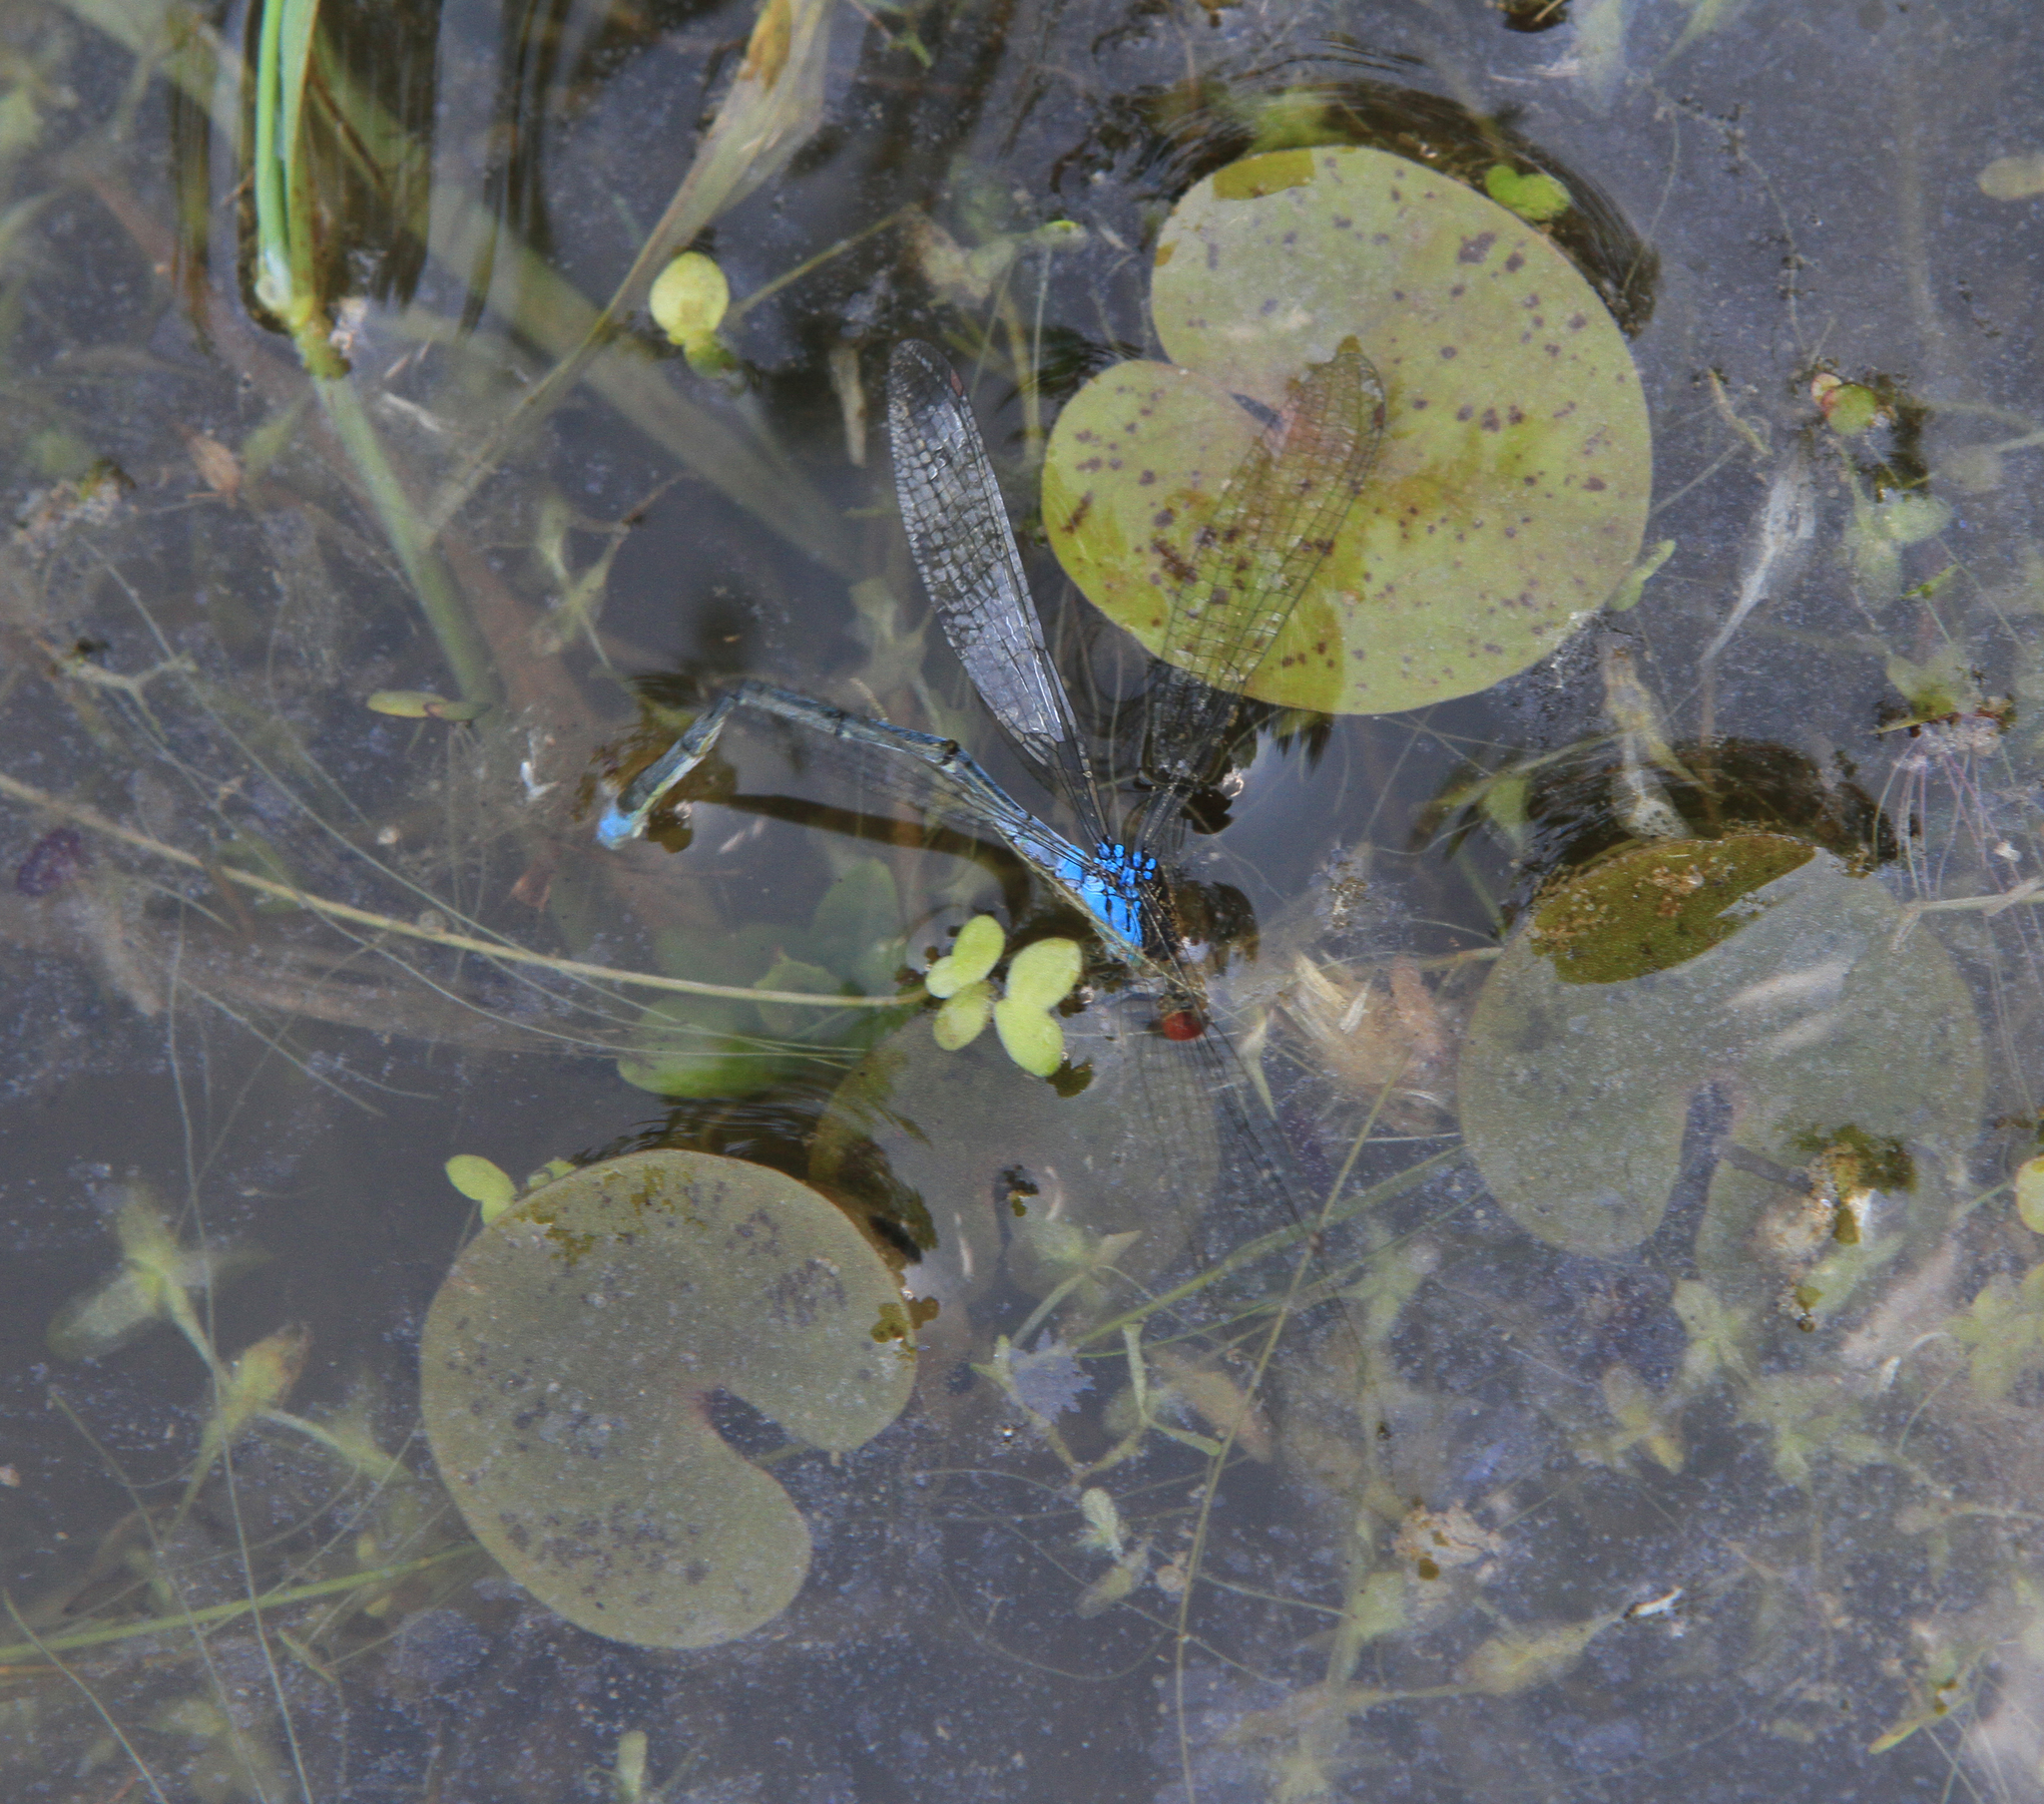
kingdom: Animalia
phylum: Arthropoda
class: Insecta
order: Odonata
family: Coenagrionidae
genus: Erythromma
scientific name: Erythromma najas
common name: Red-eyed damselfly
